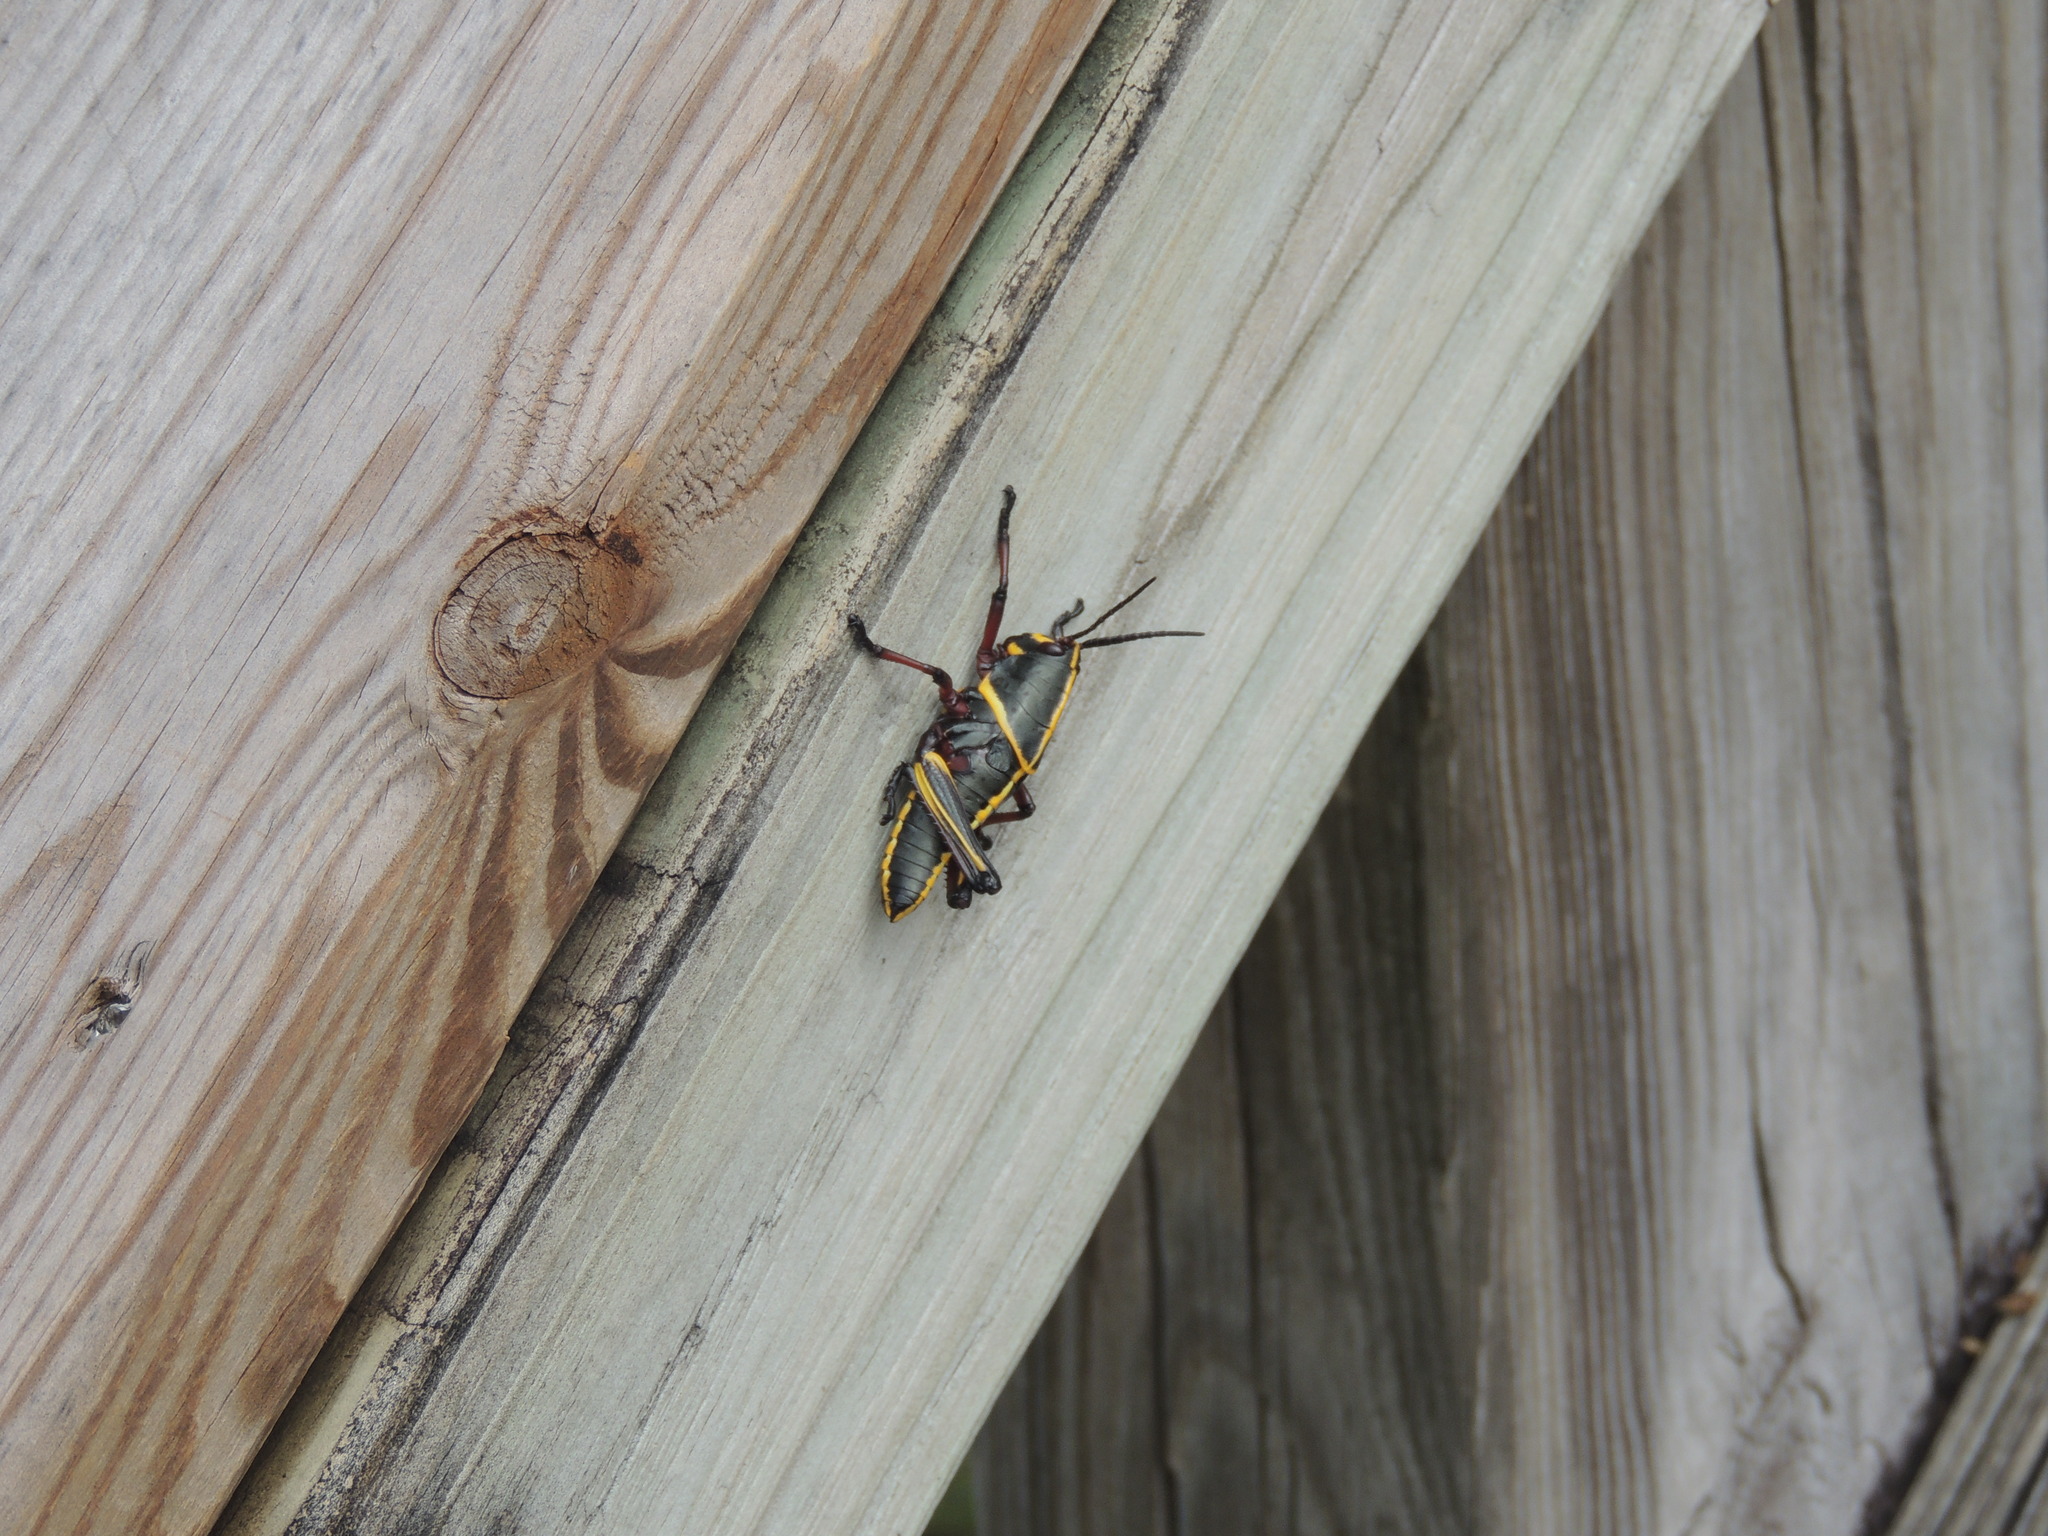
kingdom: Animalia
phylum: Arthropoda
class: Insecta
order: Orthoptera
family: Romaleidae
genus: Romalea
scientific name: Romalea microptera
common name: Eastern lubber grasshopper
